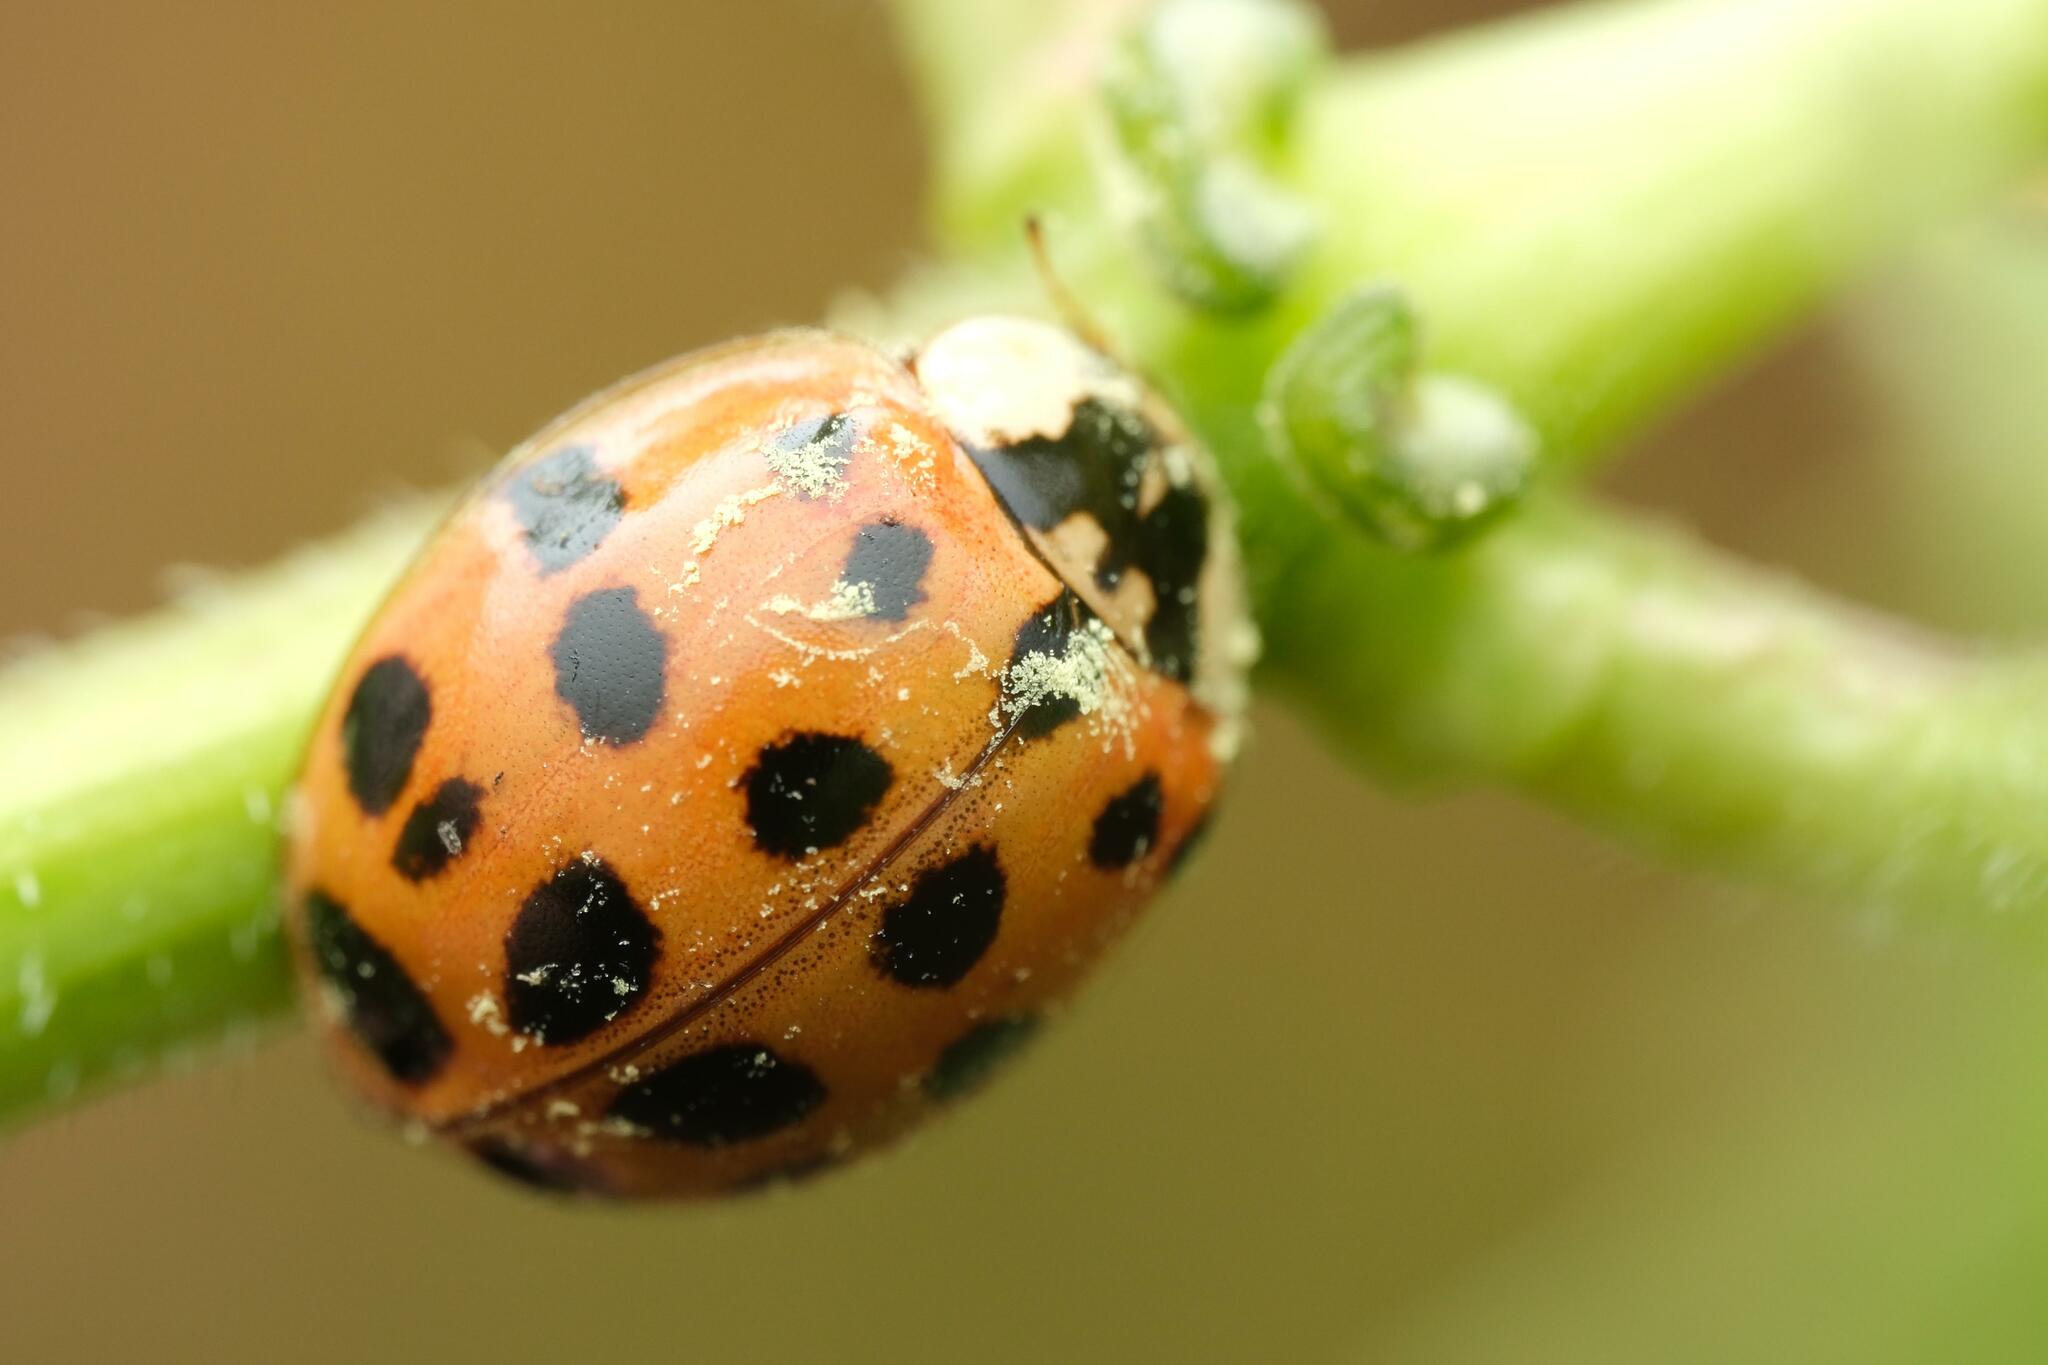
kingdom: Animalia
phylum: Arthropoda
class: Insecta
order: Coleoptera
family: Coccinellidae
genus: Harmonia
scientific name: Harmonia axyridis
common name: Harlequin ladybird
